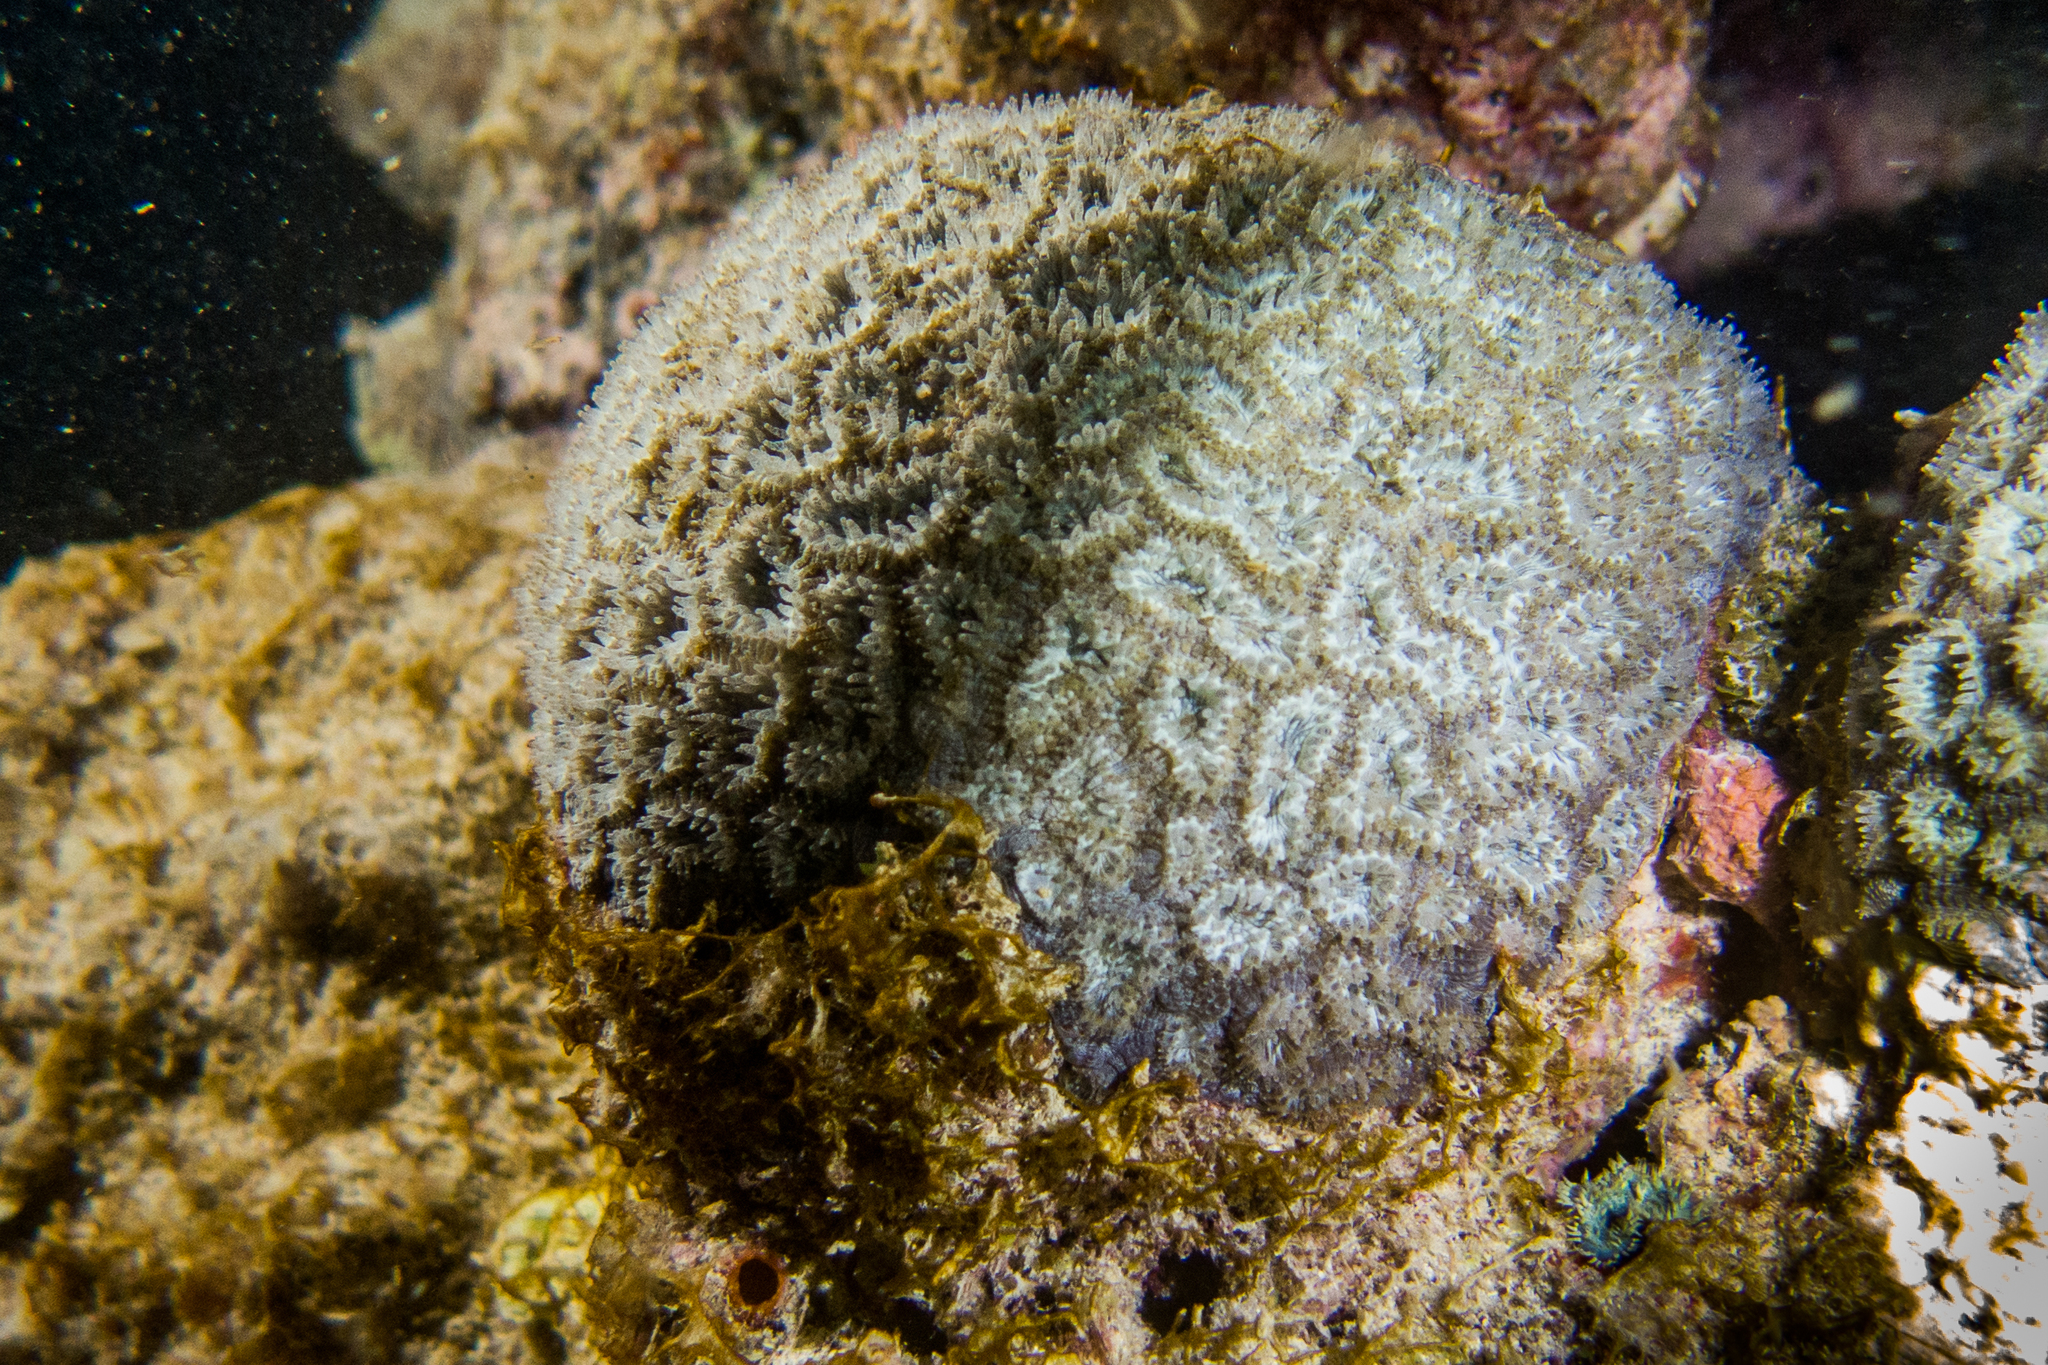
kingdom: Animalia
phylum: Cnidaria
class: Anthozoa
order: Scleractinia
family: Faviidae
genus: Mussismilia
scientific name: Mussismilia hispida
